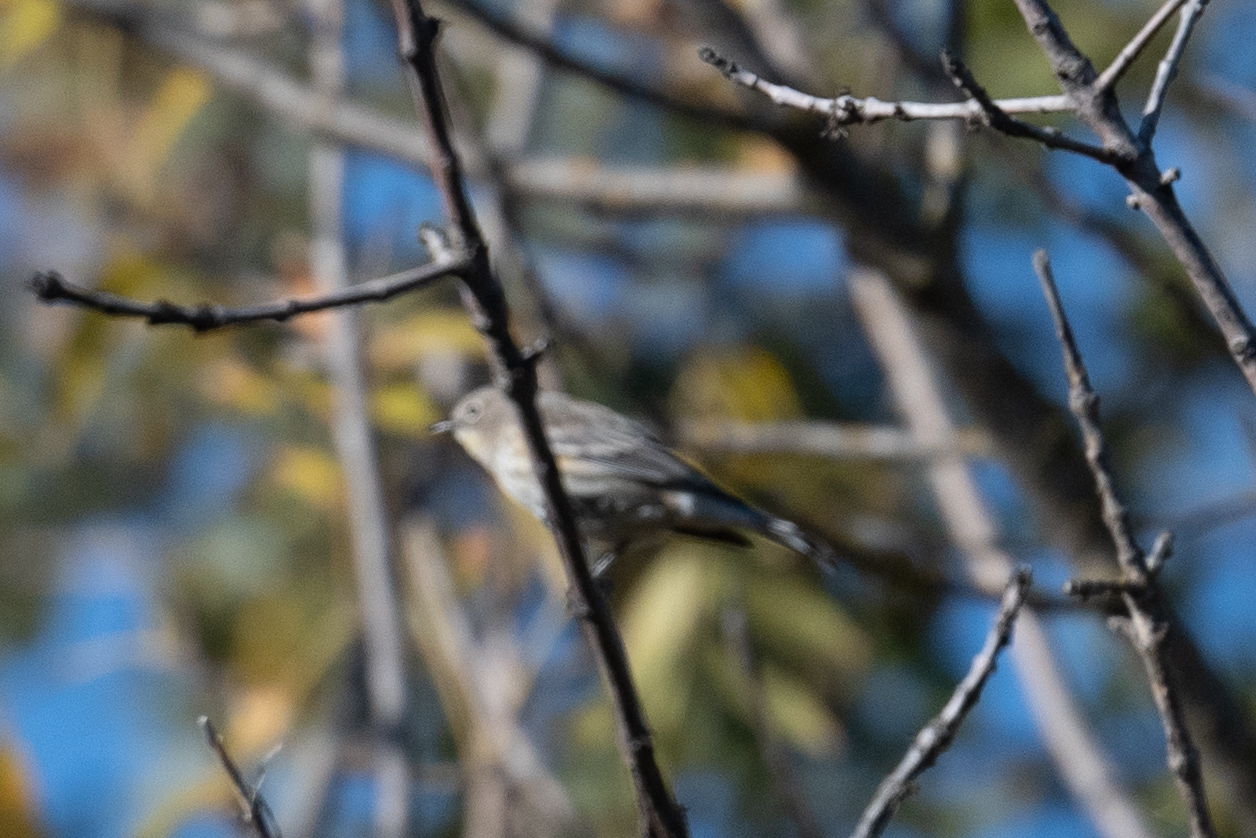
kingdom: Animalia
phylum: Chordata
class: Aves
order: Passeriformes
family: Parulidae
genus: Setophaga
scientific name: Setophaga coronata
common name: Myrtle warbler
